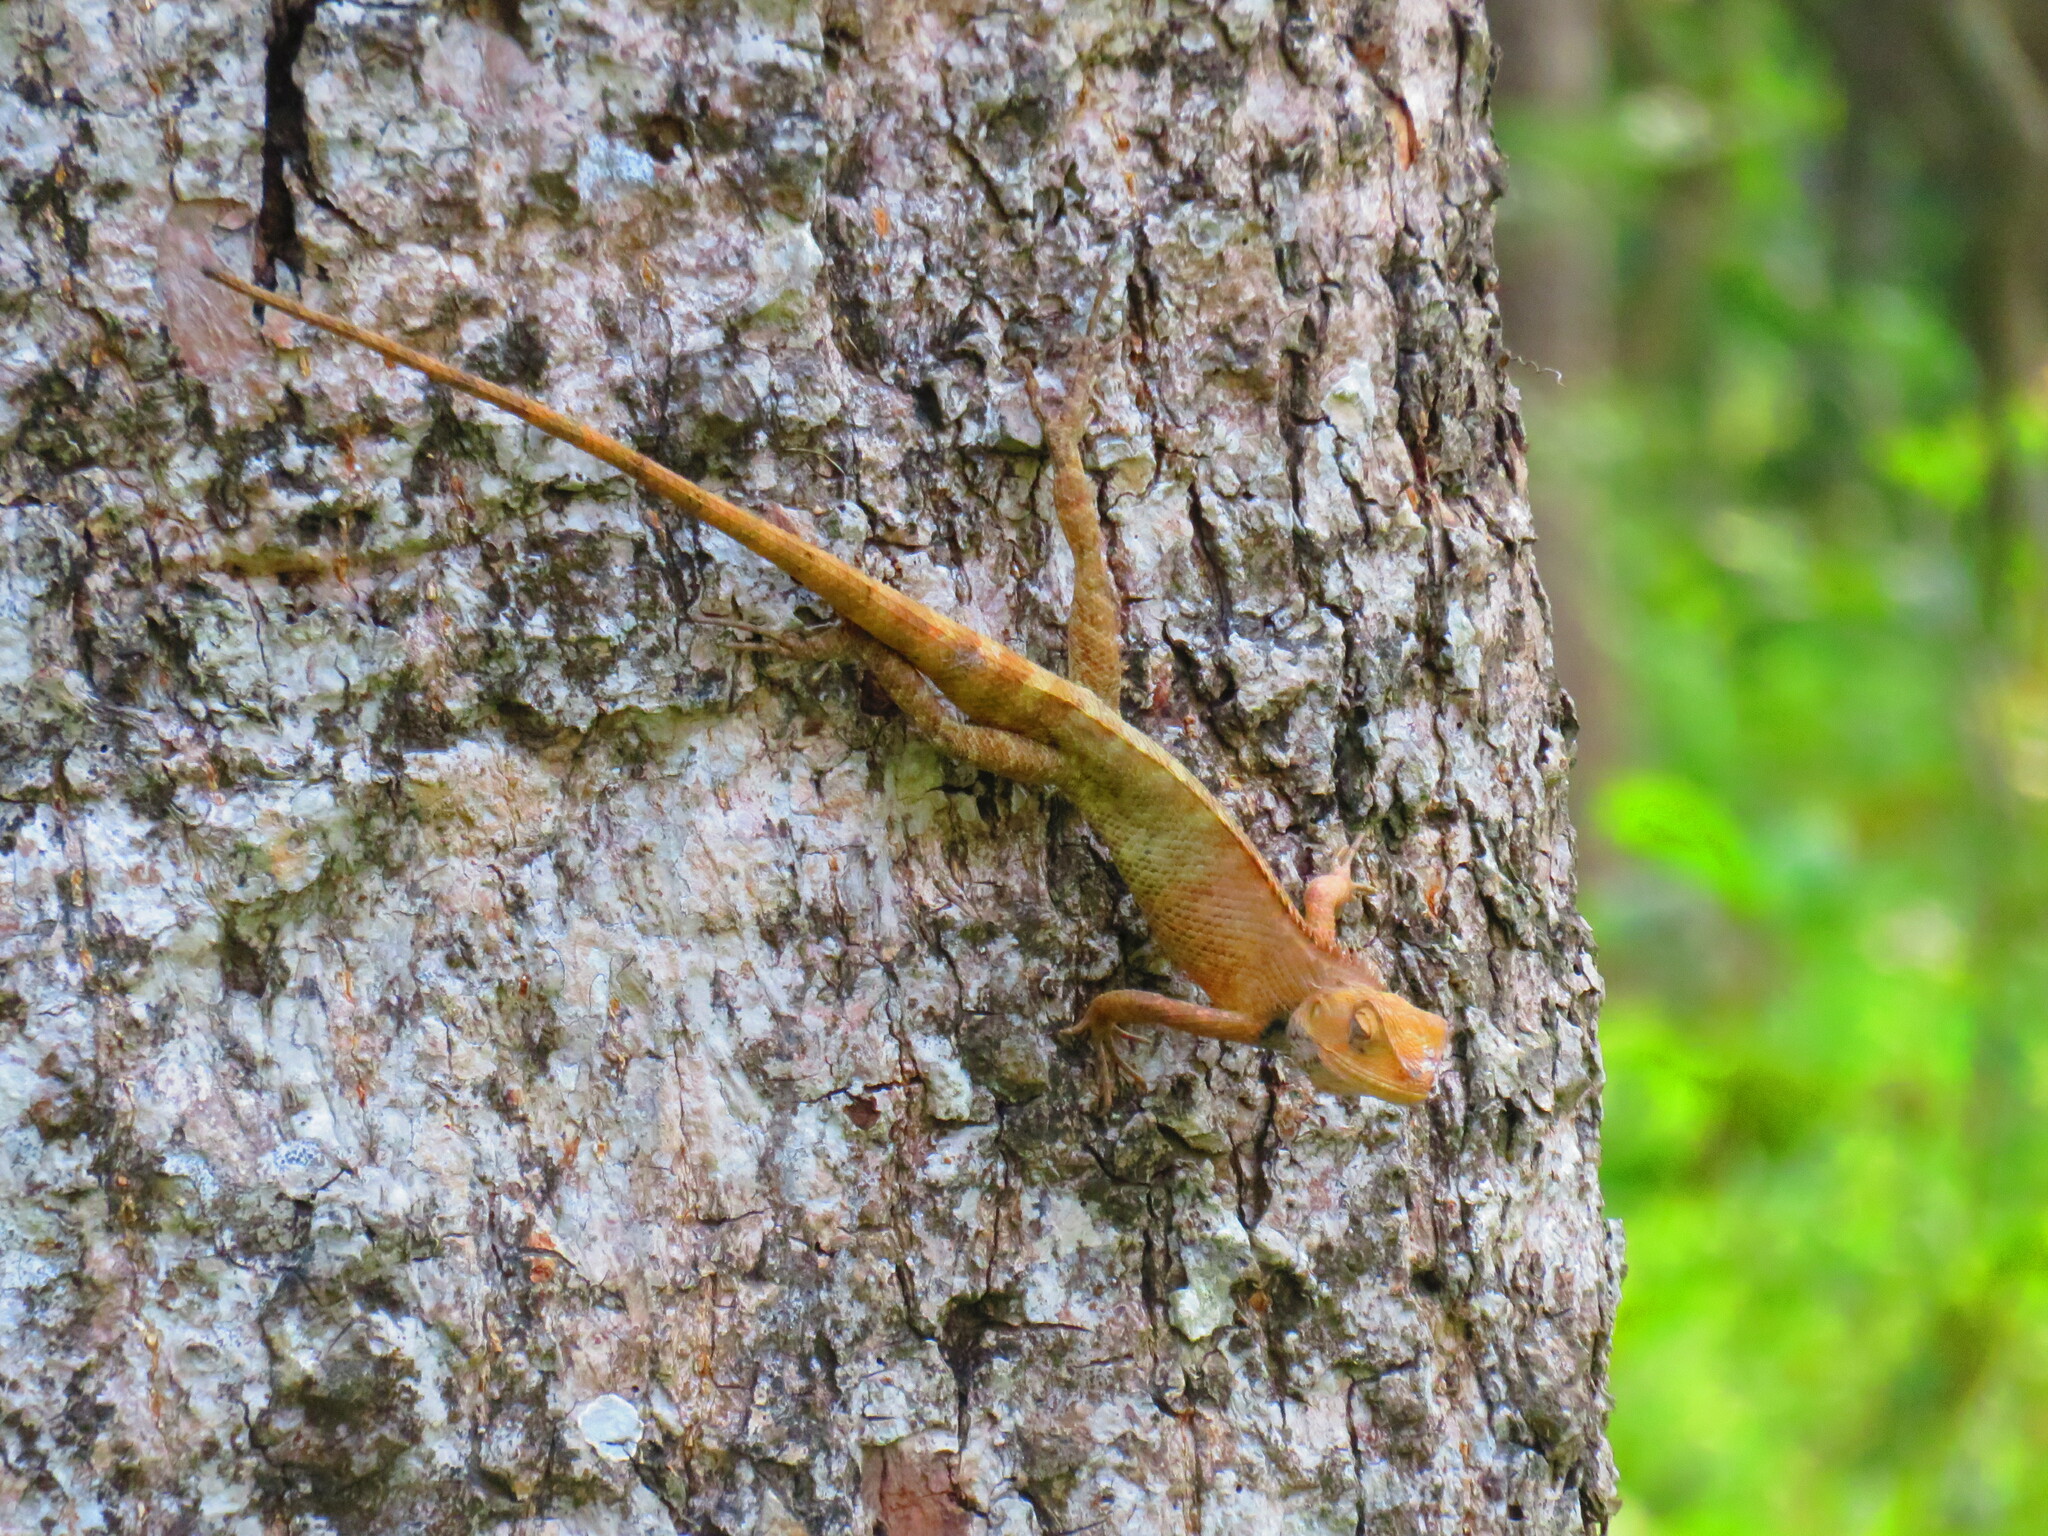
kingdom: Animalia
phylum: Chordata
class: Squamata
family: Agamidae
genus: Calotes
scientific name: Calotes versicolor
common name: Oriental garden lizard
